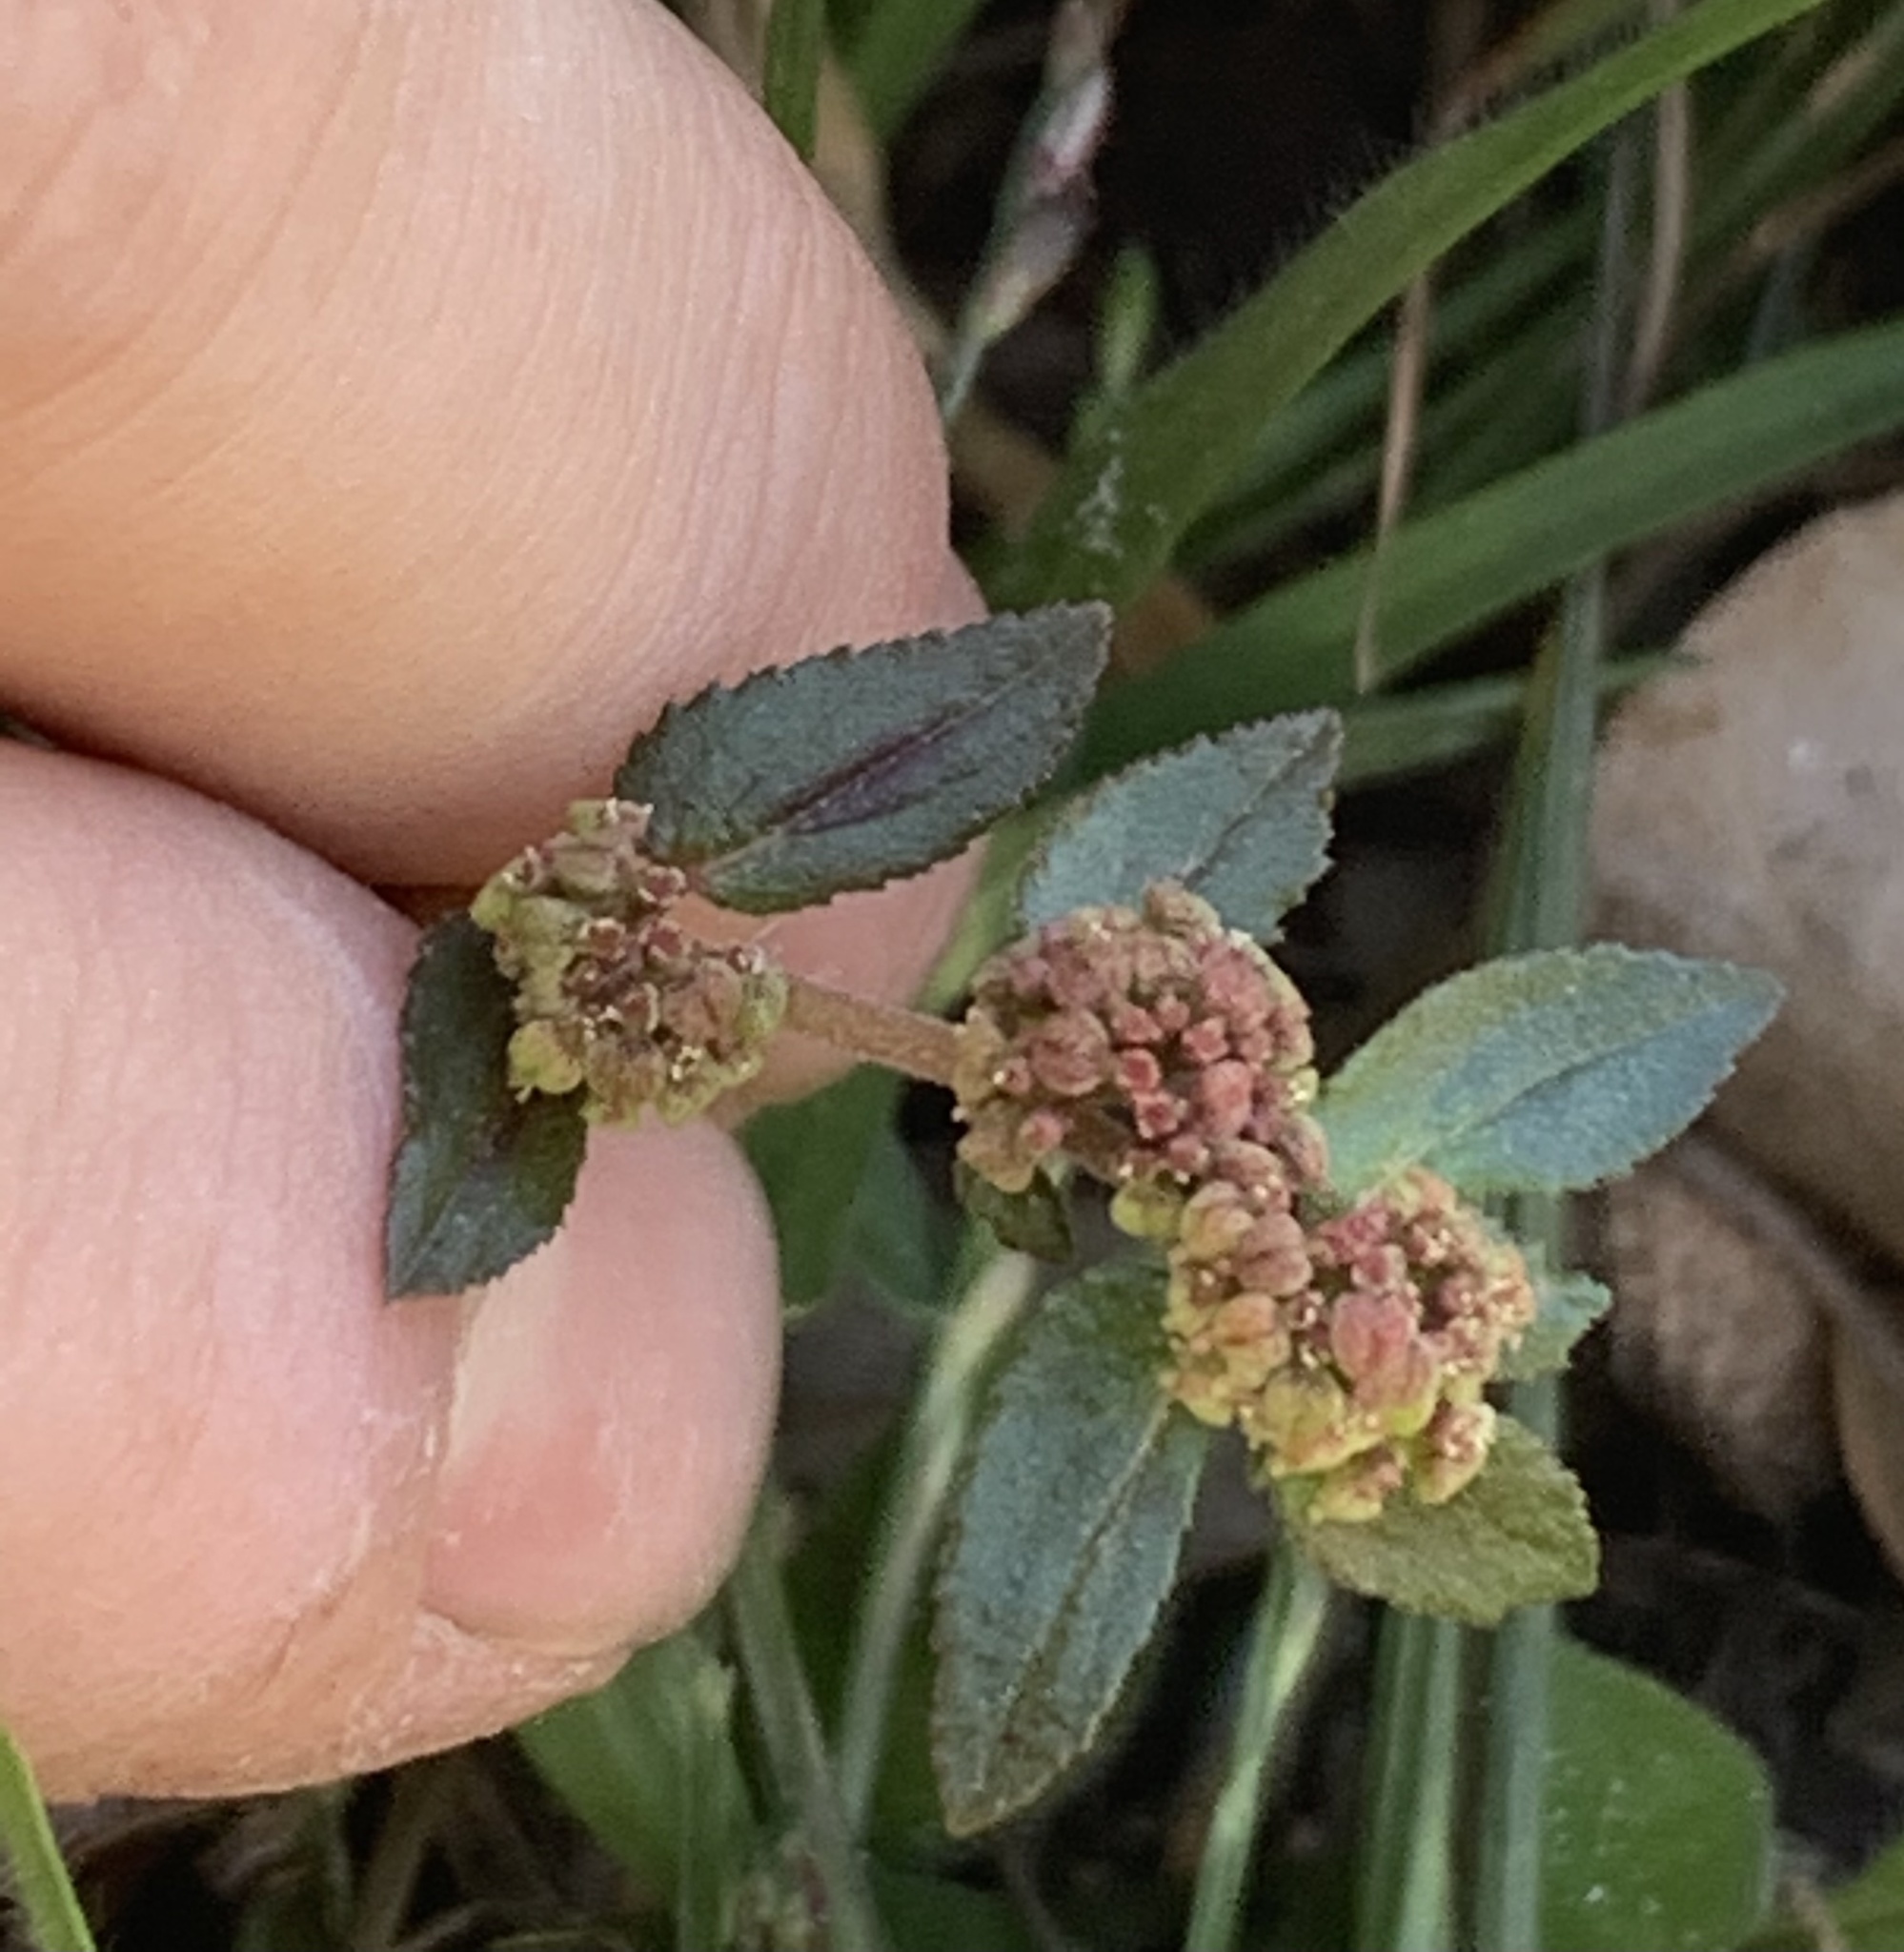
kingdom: Plantae
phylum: Tracheophyta
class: Magnoliopsida
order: Malpighiales
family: Euphorbiaceae
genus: Euphorbia
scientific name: Euphorbia hirta
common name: Pillpod sandmat
